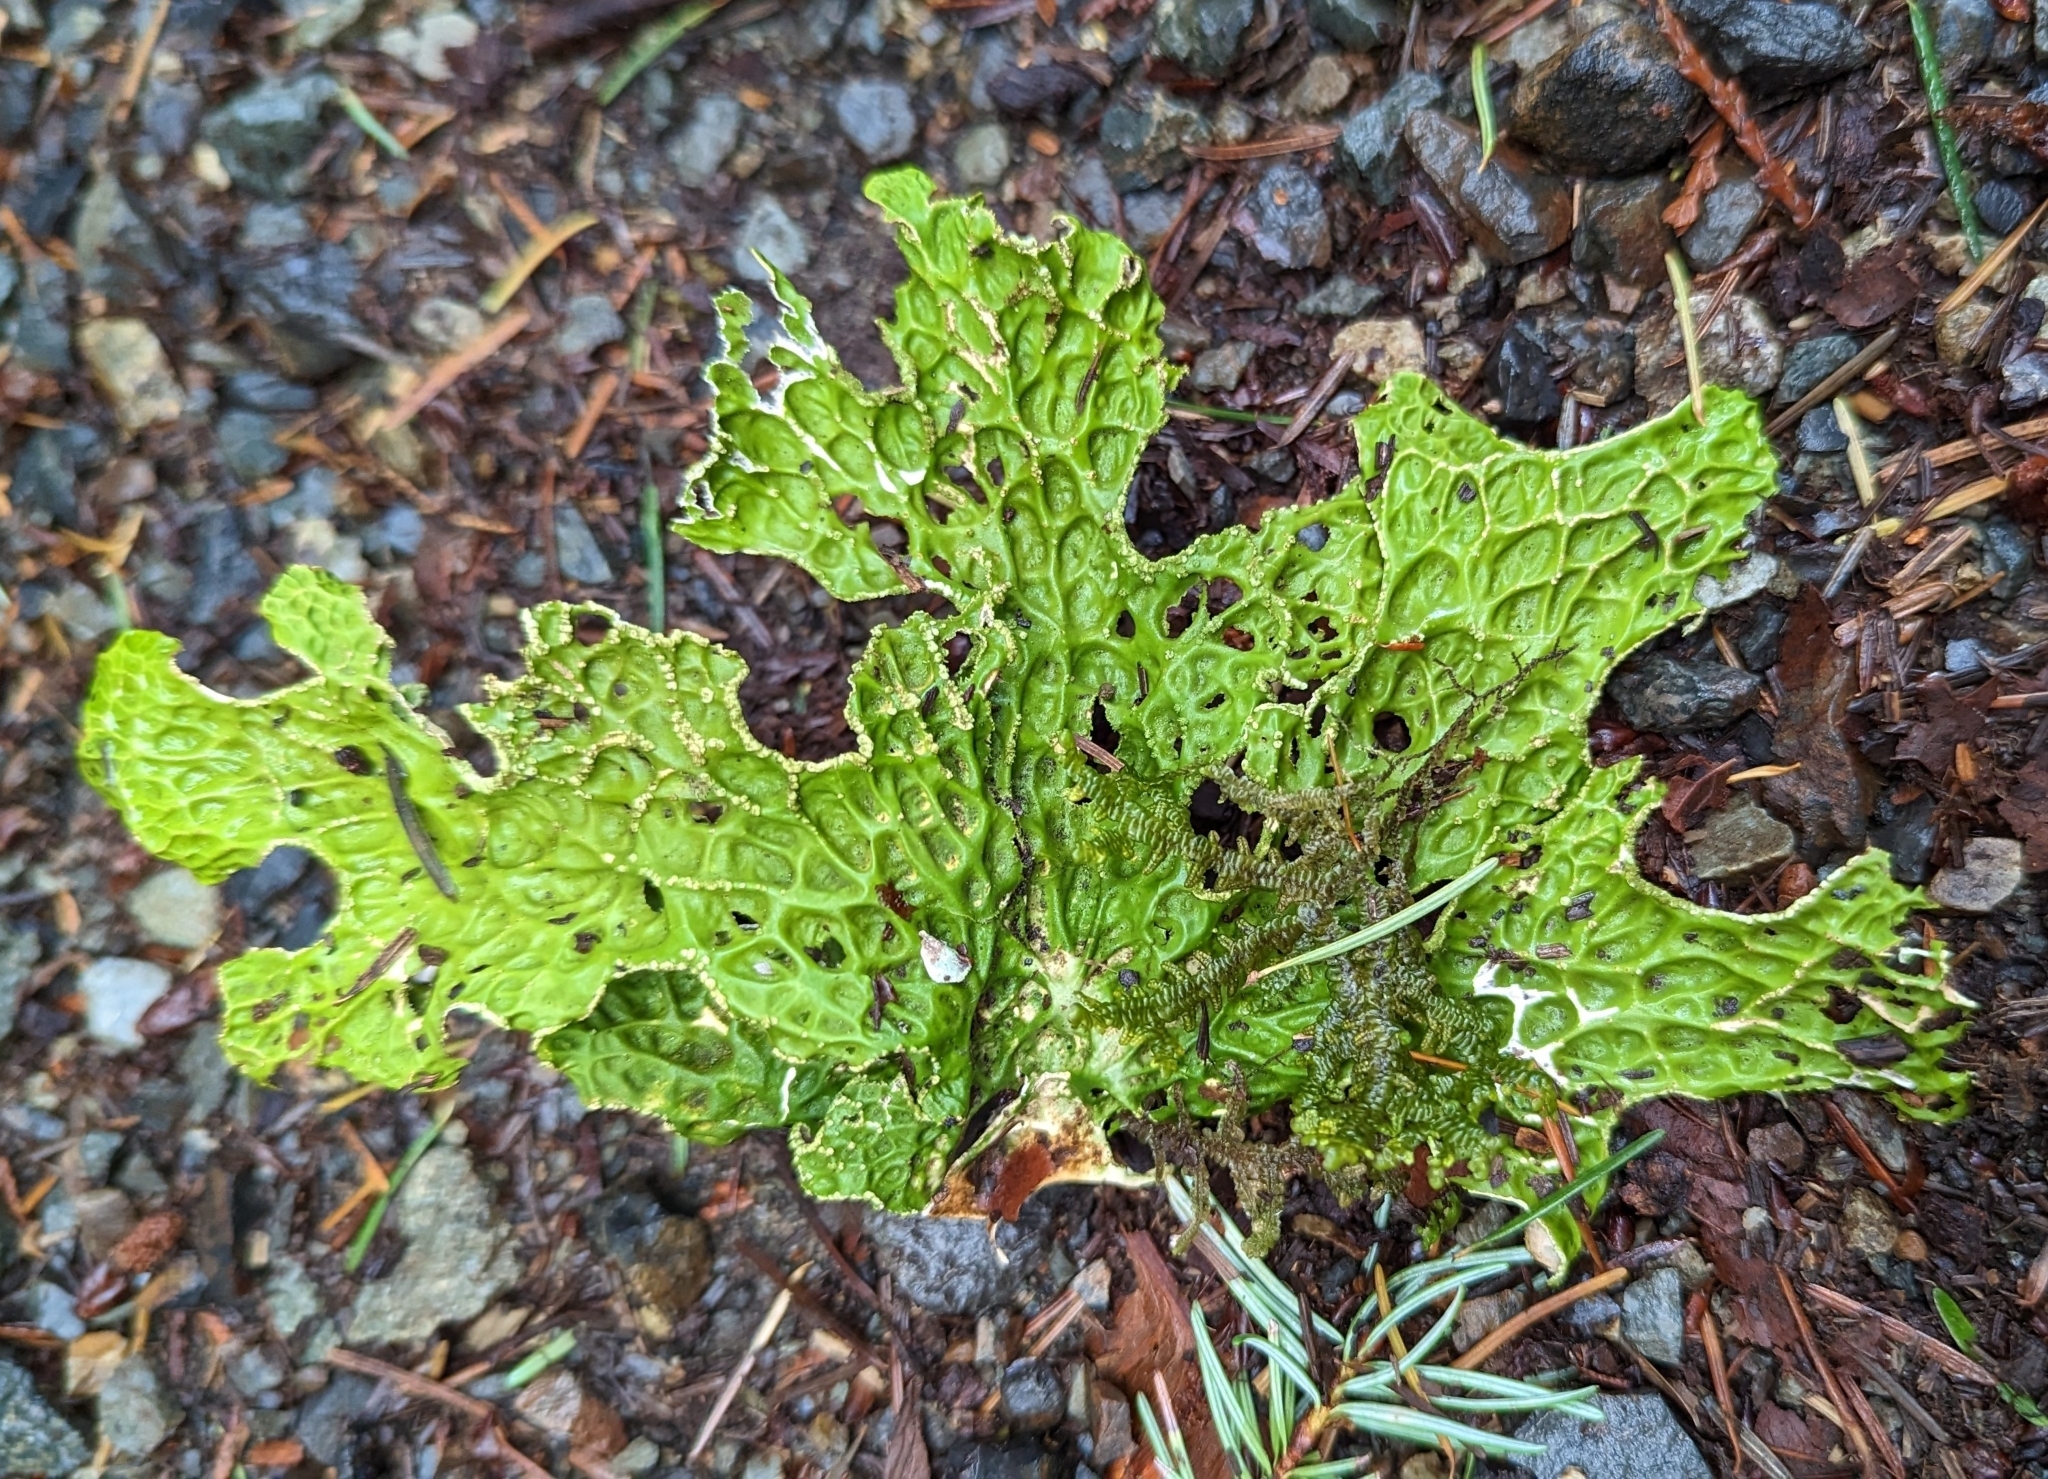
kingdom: Fungi
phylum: Ascomycota
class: Lecanoromycetes
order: Peltigerales
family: Lobariaceae
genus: Lobaria
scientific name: Lobaria pulmonaria
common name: Lungwort
